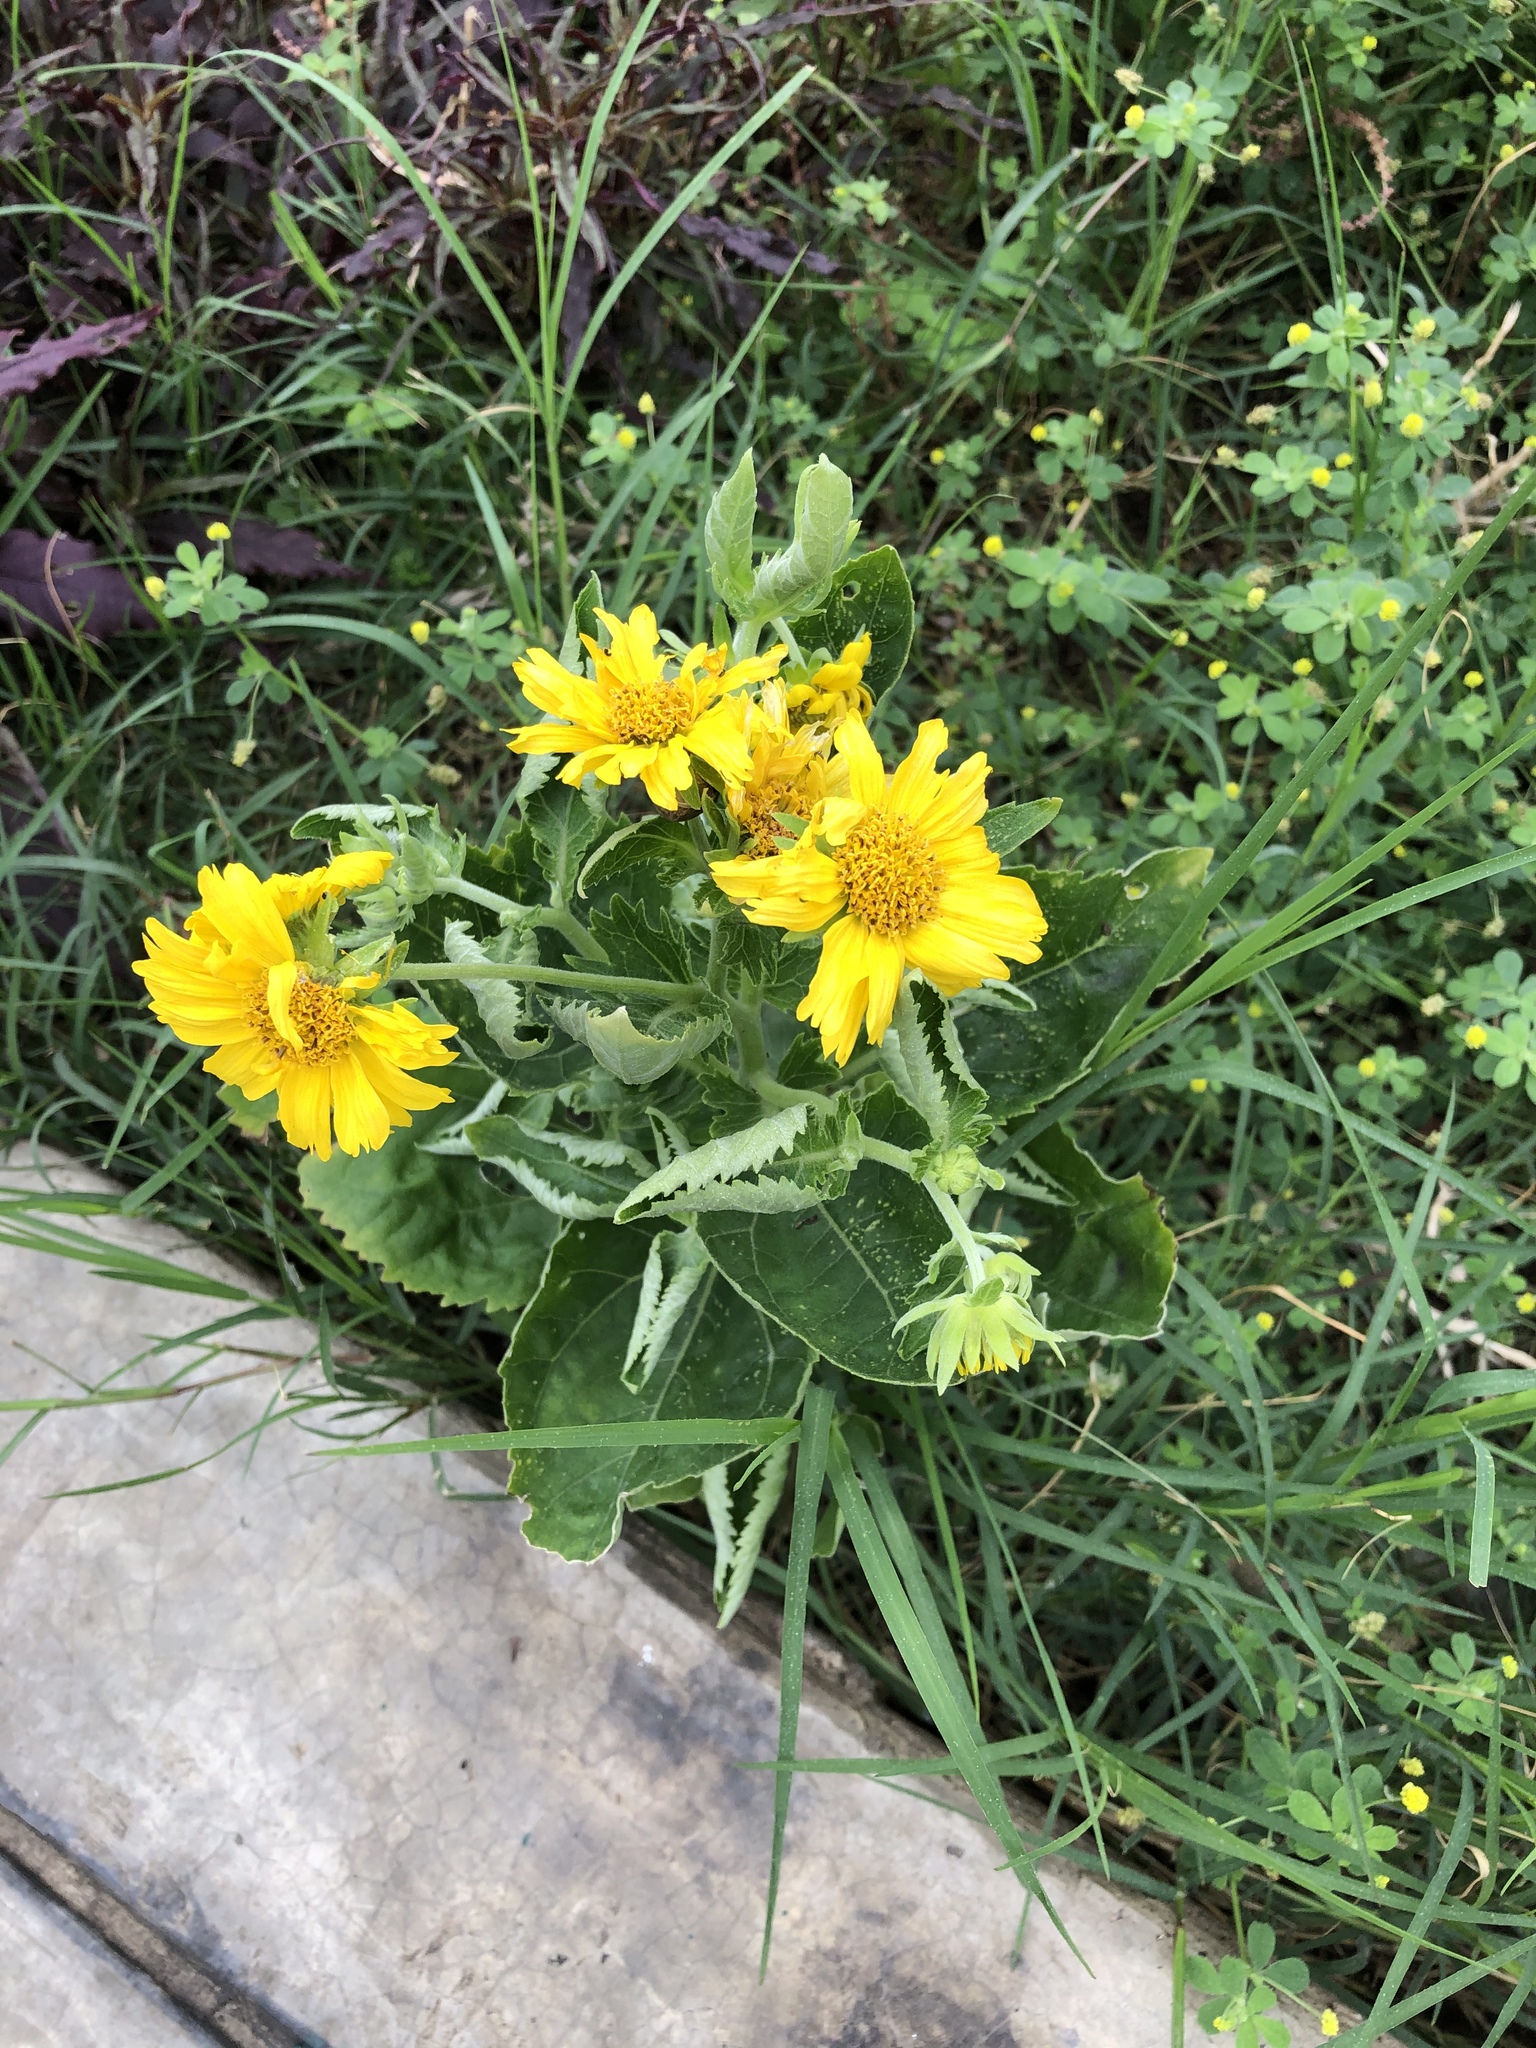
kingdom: Plantae
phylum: Tracheophyta
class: Magnoliopsida
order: Asterales
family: Asteraceae
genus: Verbesina
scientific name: Verbesina encelioides
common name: Golden crownbeard
